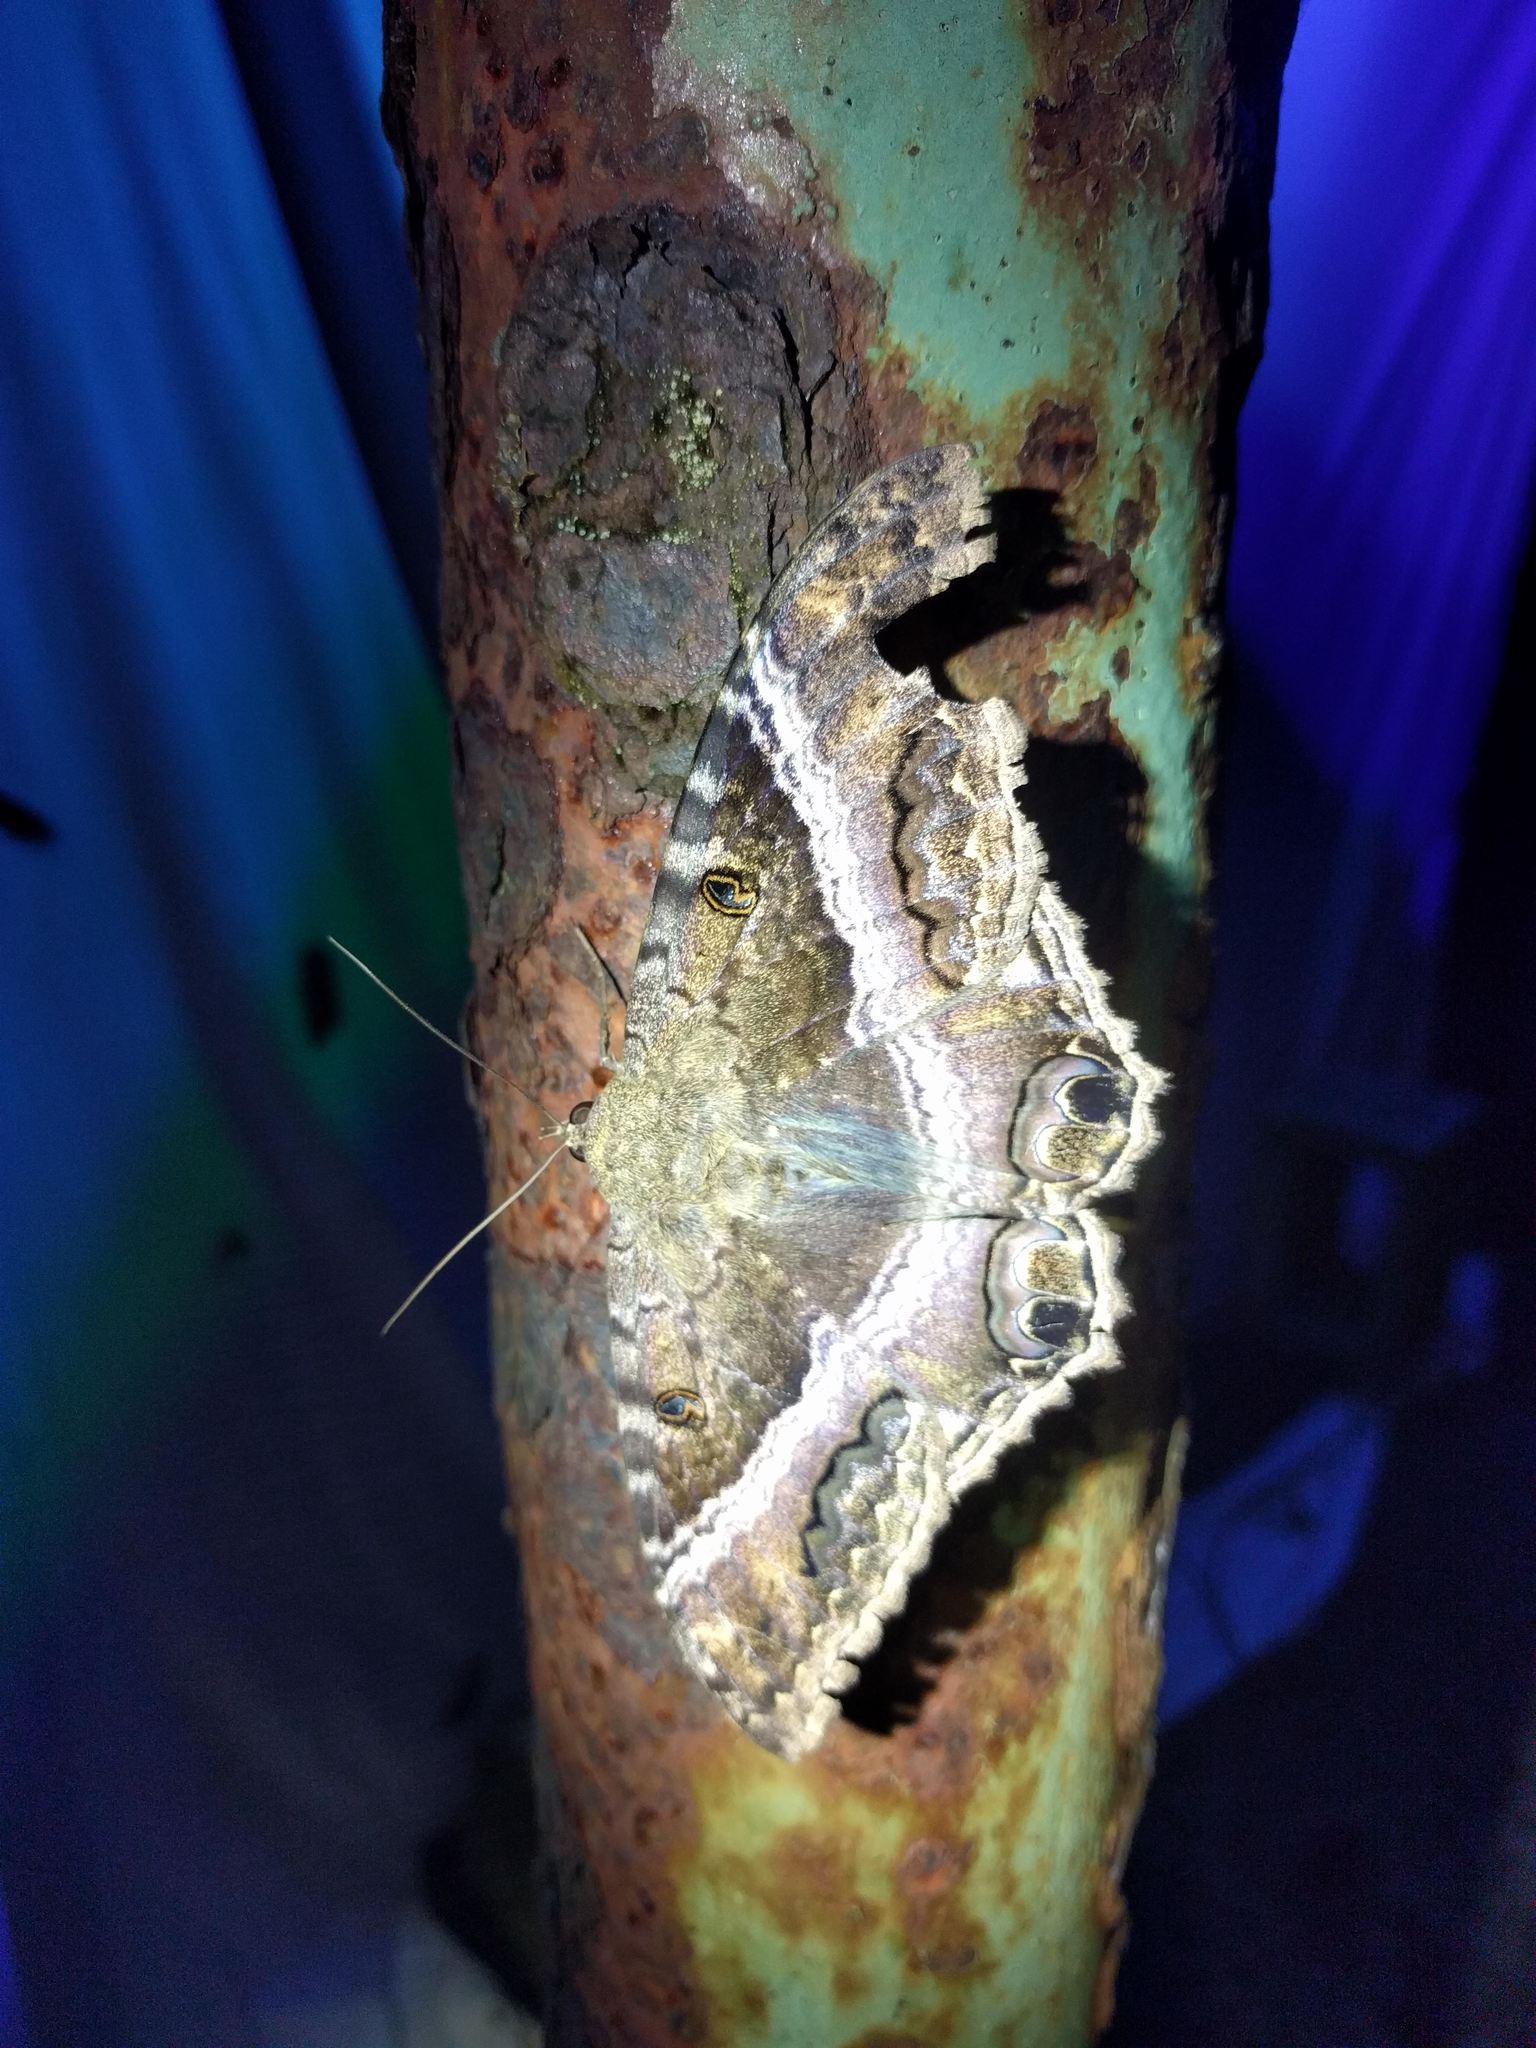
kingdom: Animalia
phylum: Arthropoda
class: Insecta
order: Lepidoptera
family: Erebidae
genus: Ascalapha
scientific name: Ascalapha odorata
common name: Black witch
